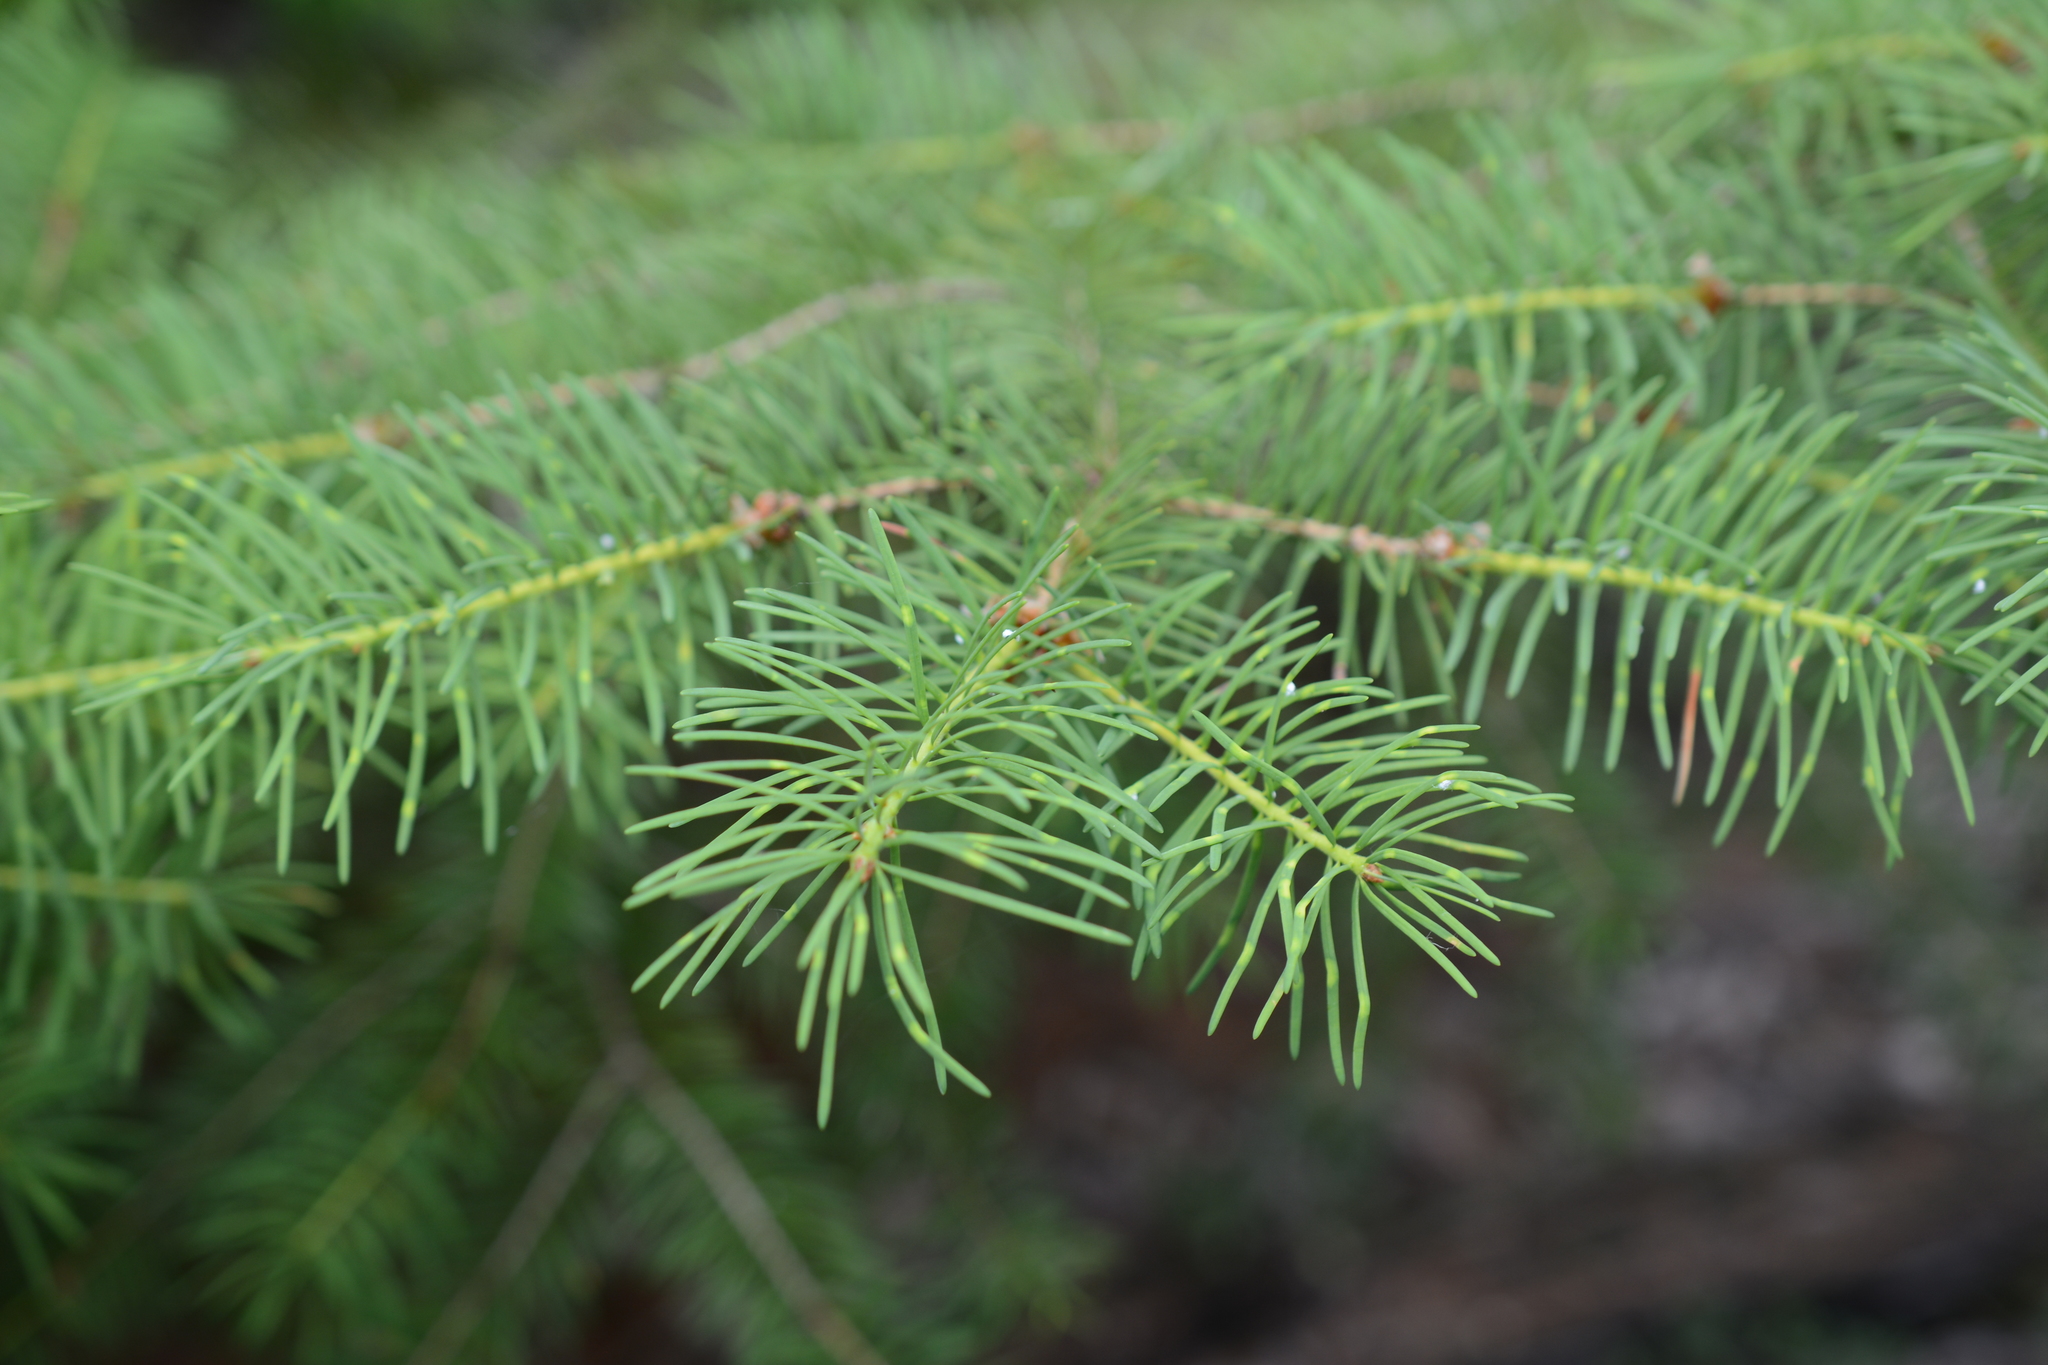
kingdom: Plantae
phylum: Tracheophyta
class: Pinopsida
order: Pinales
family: Pinaceae
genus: Pseudotsuga
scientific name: Pseudotsuga menziesii
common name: Douglas fir
